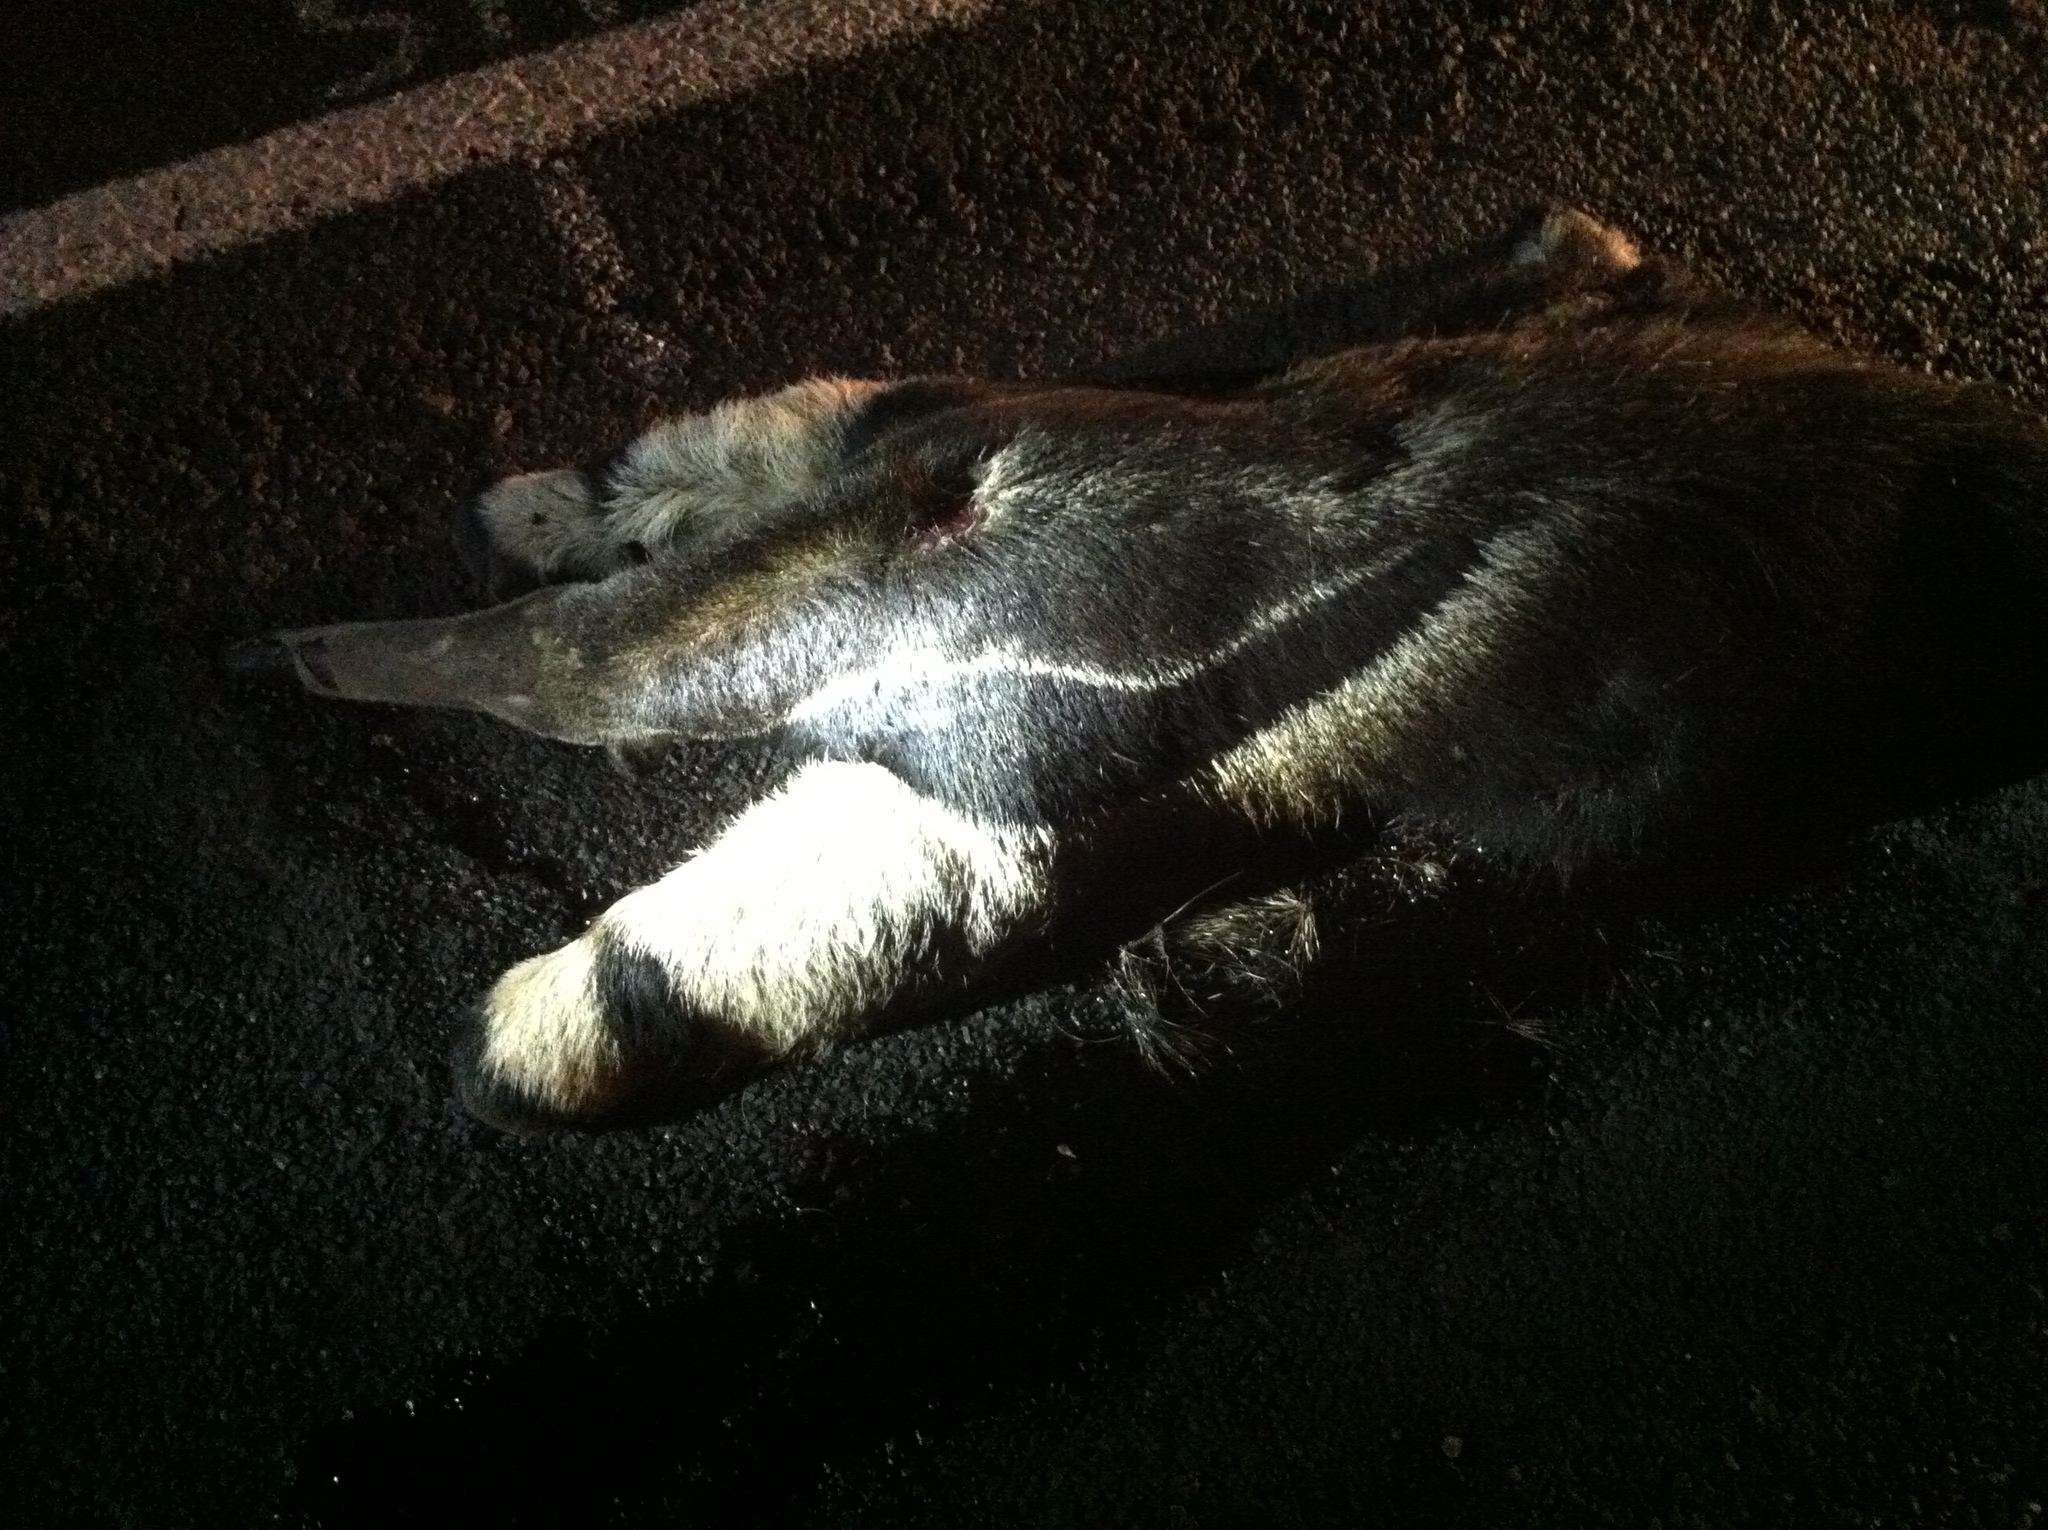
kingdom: Animalia
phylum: Chordata
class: Mammalia
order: Pilosa
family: Myrmecophagidae
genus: Myrmecophaga
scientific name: Myrmecophaga tridactyla
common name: Giant anteater
